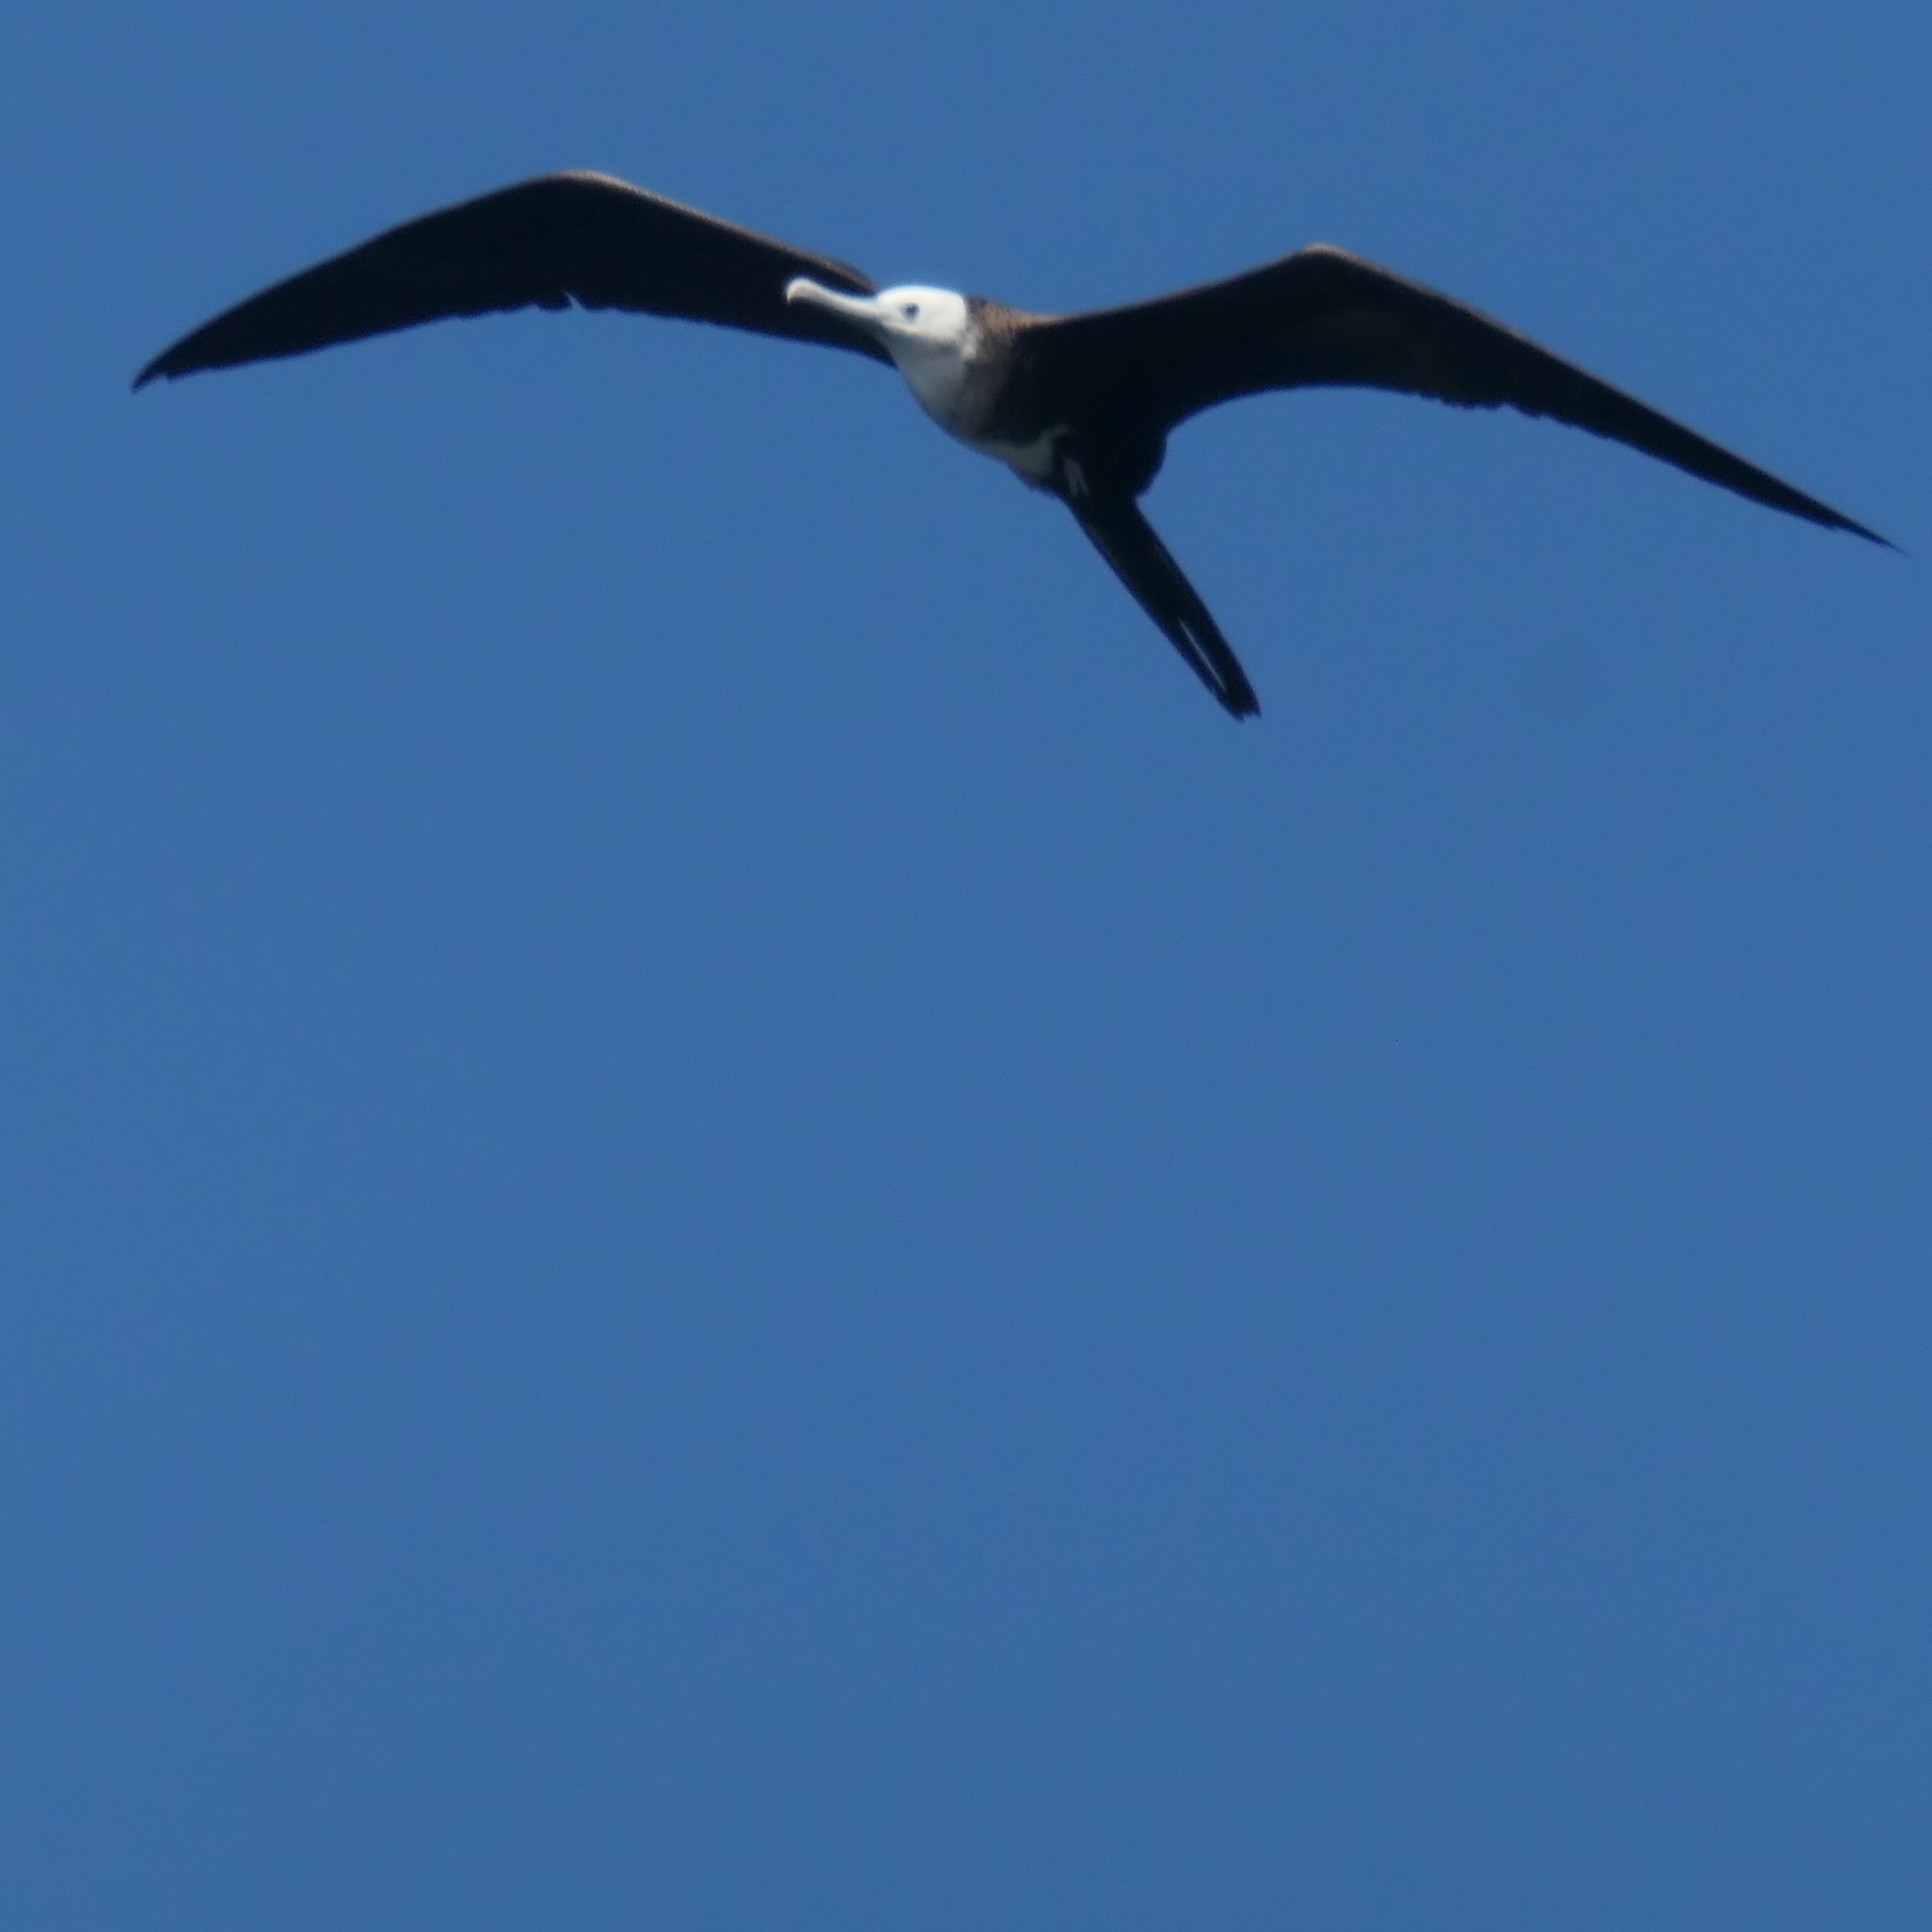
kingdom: Animalia
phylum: Chordata
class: Aves
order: Suliformes
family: Fregatidae
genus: Fregata
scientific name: Fregata magnificens
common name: Magnificent frigatebird
